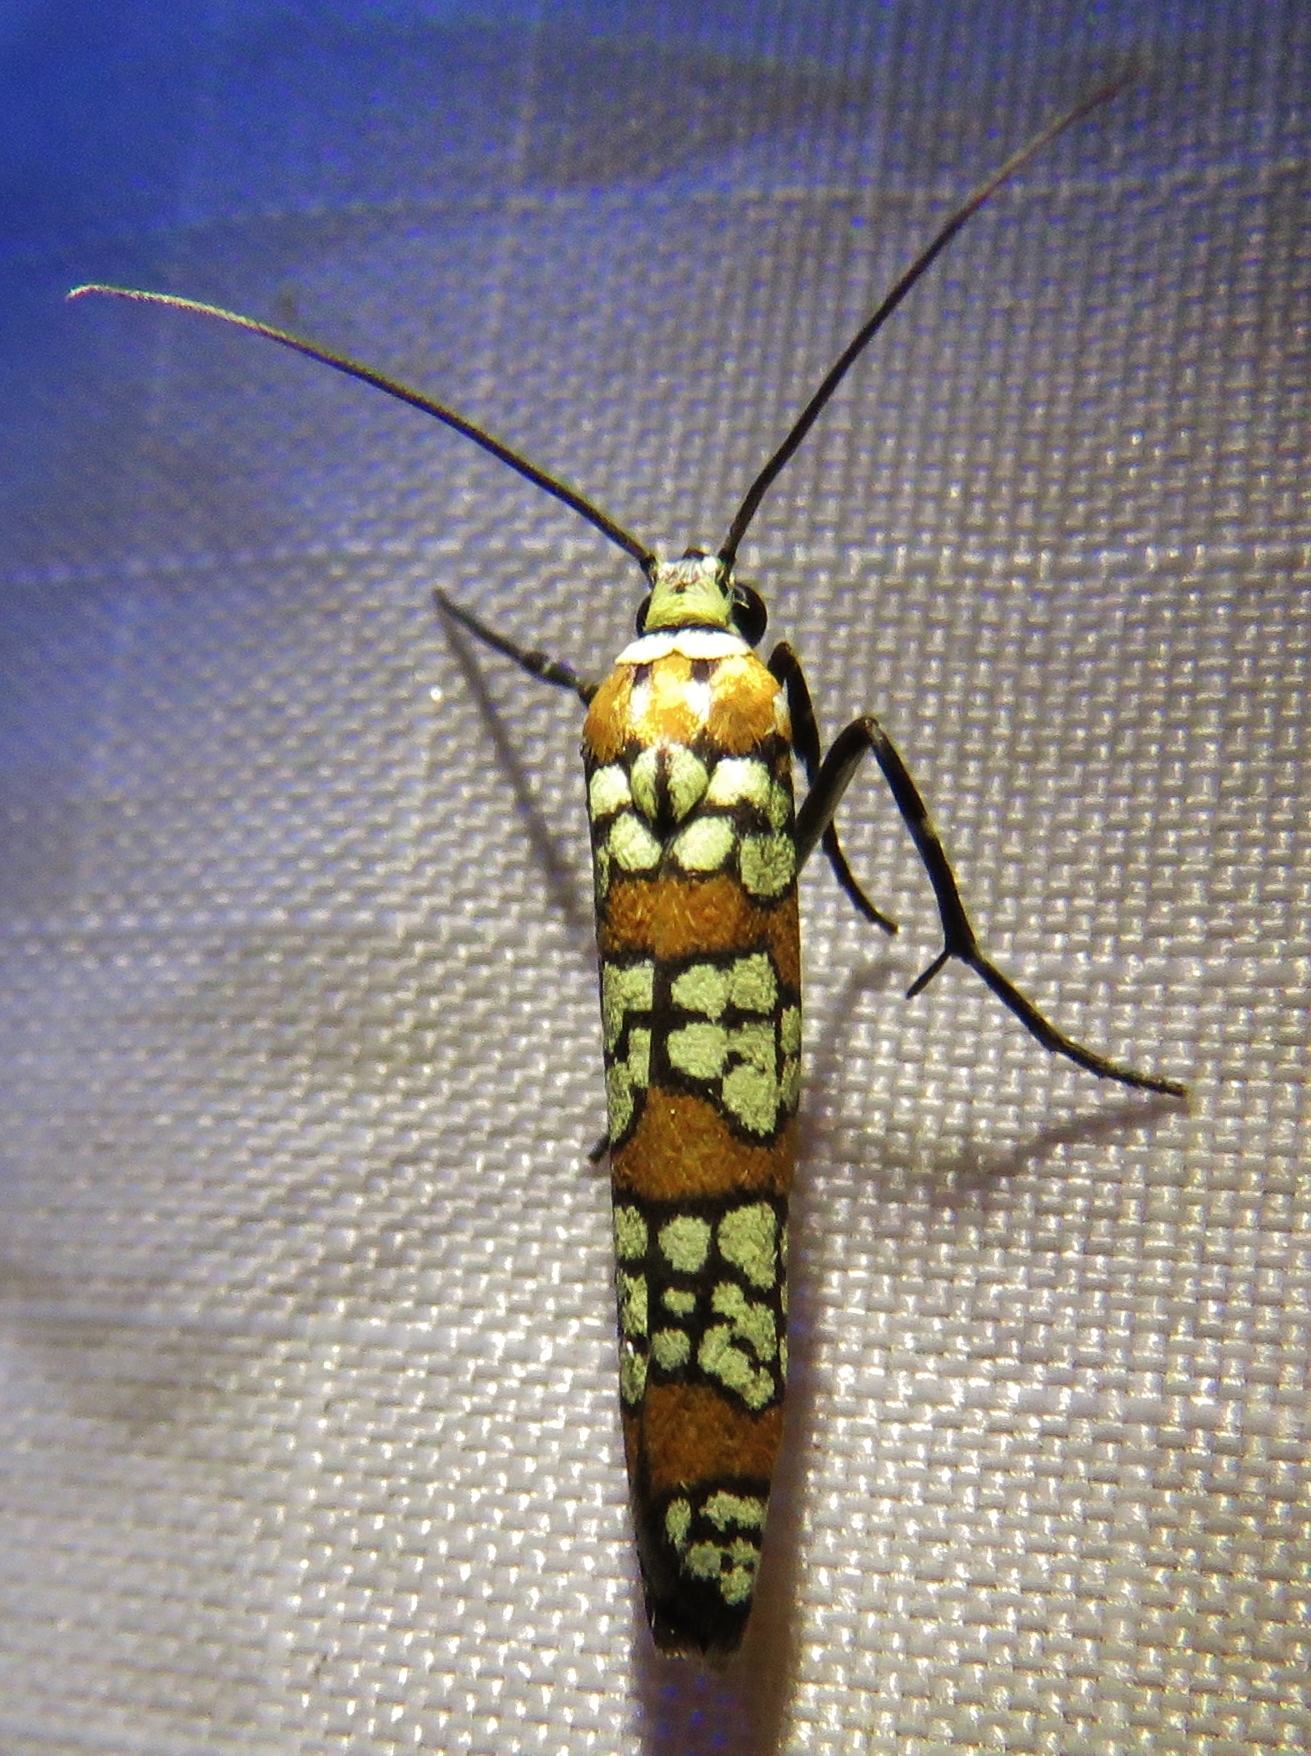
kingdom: Animalia
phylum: Arthropoda
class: Insecta
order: Lepidoptera
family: Attevidae
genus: Atteva
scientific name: Atteva punctella
